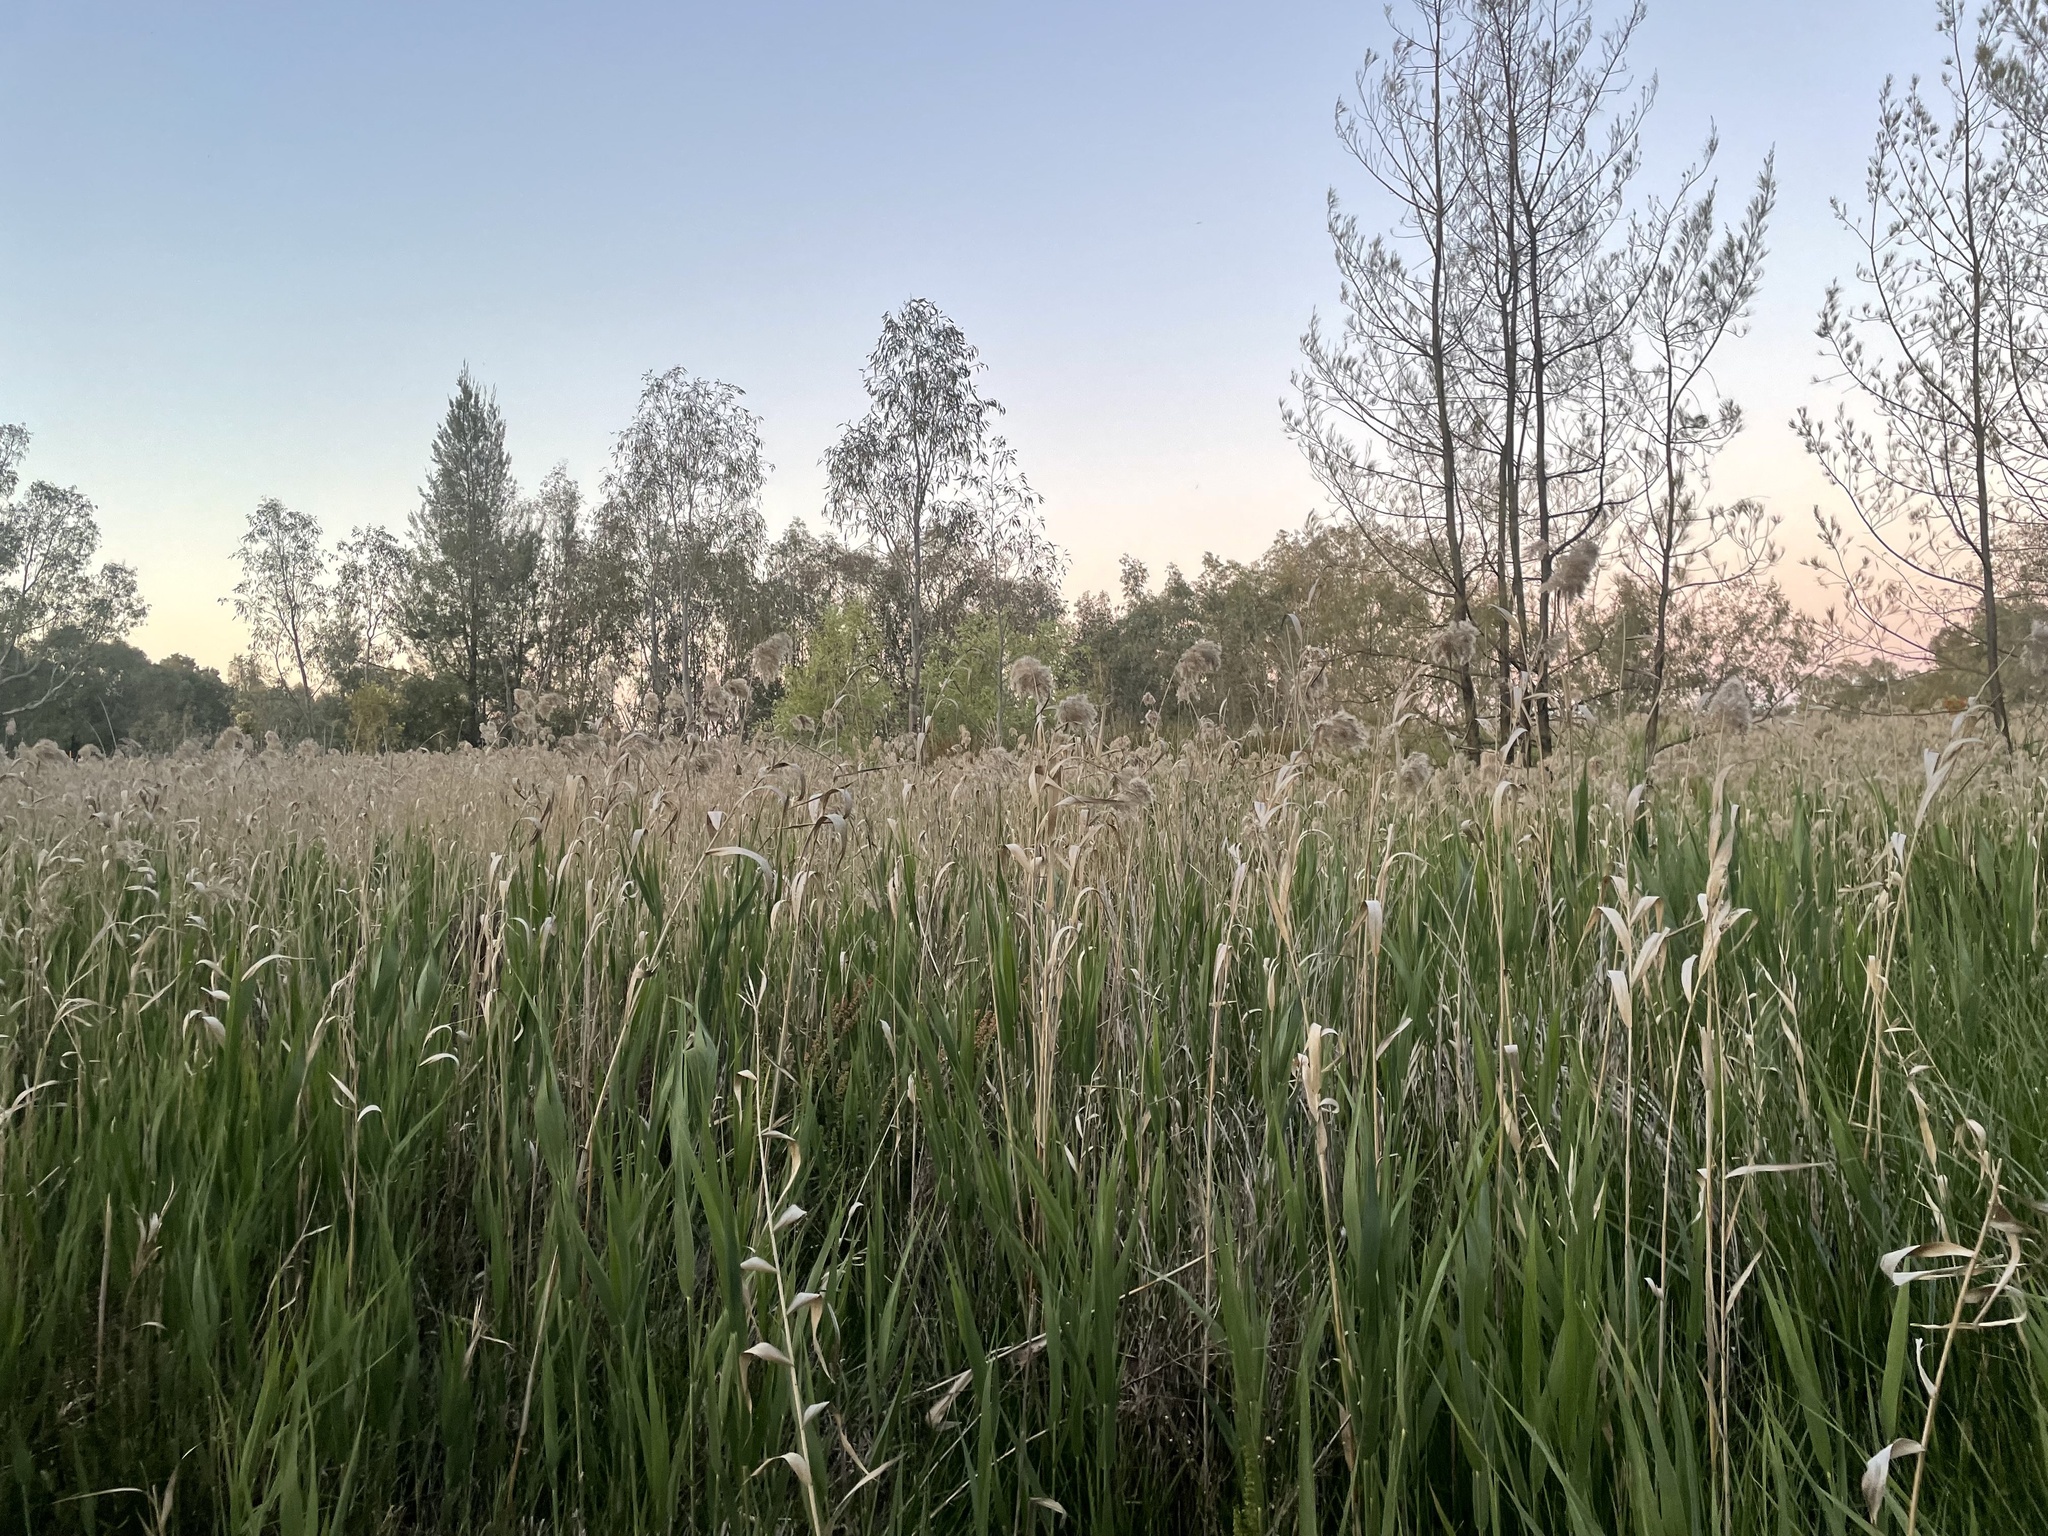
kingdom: Plantae
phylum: Tracheophyta
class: Liliopsida
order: Poales
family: Poaceae
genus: Phragmites
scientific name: Phragmites australis
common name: Common reed
